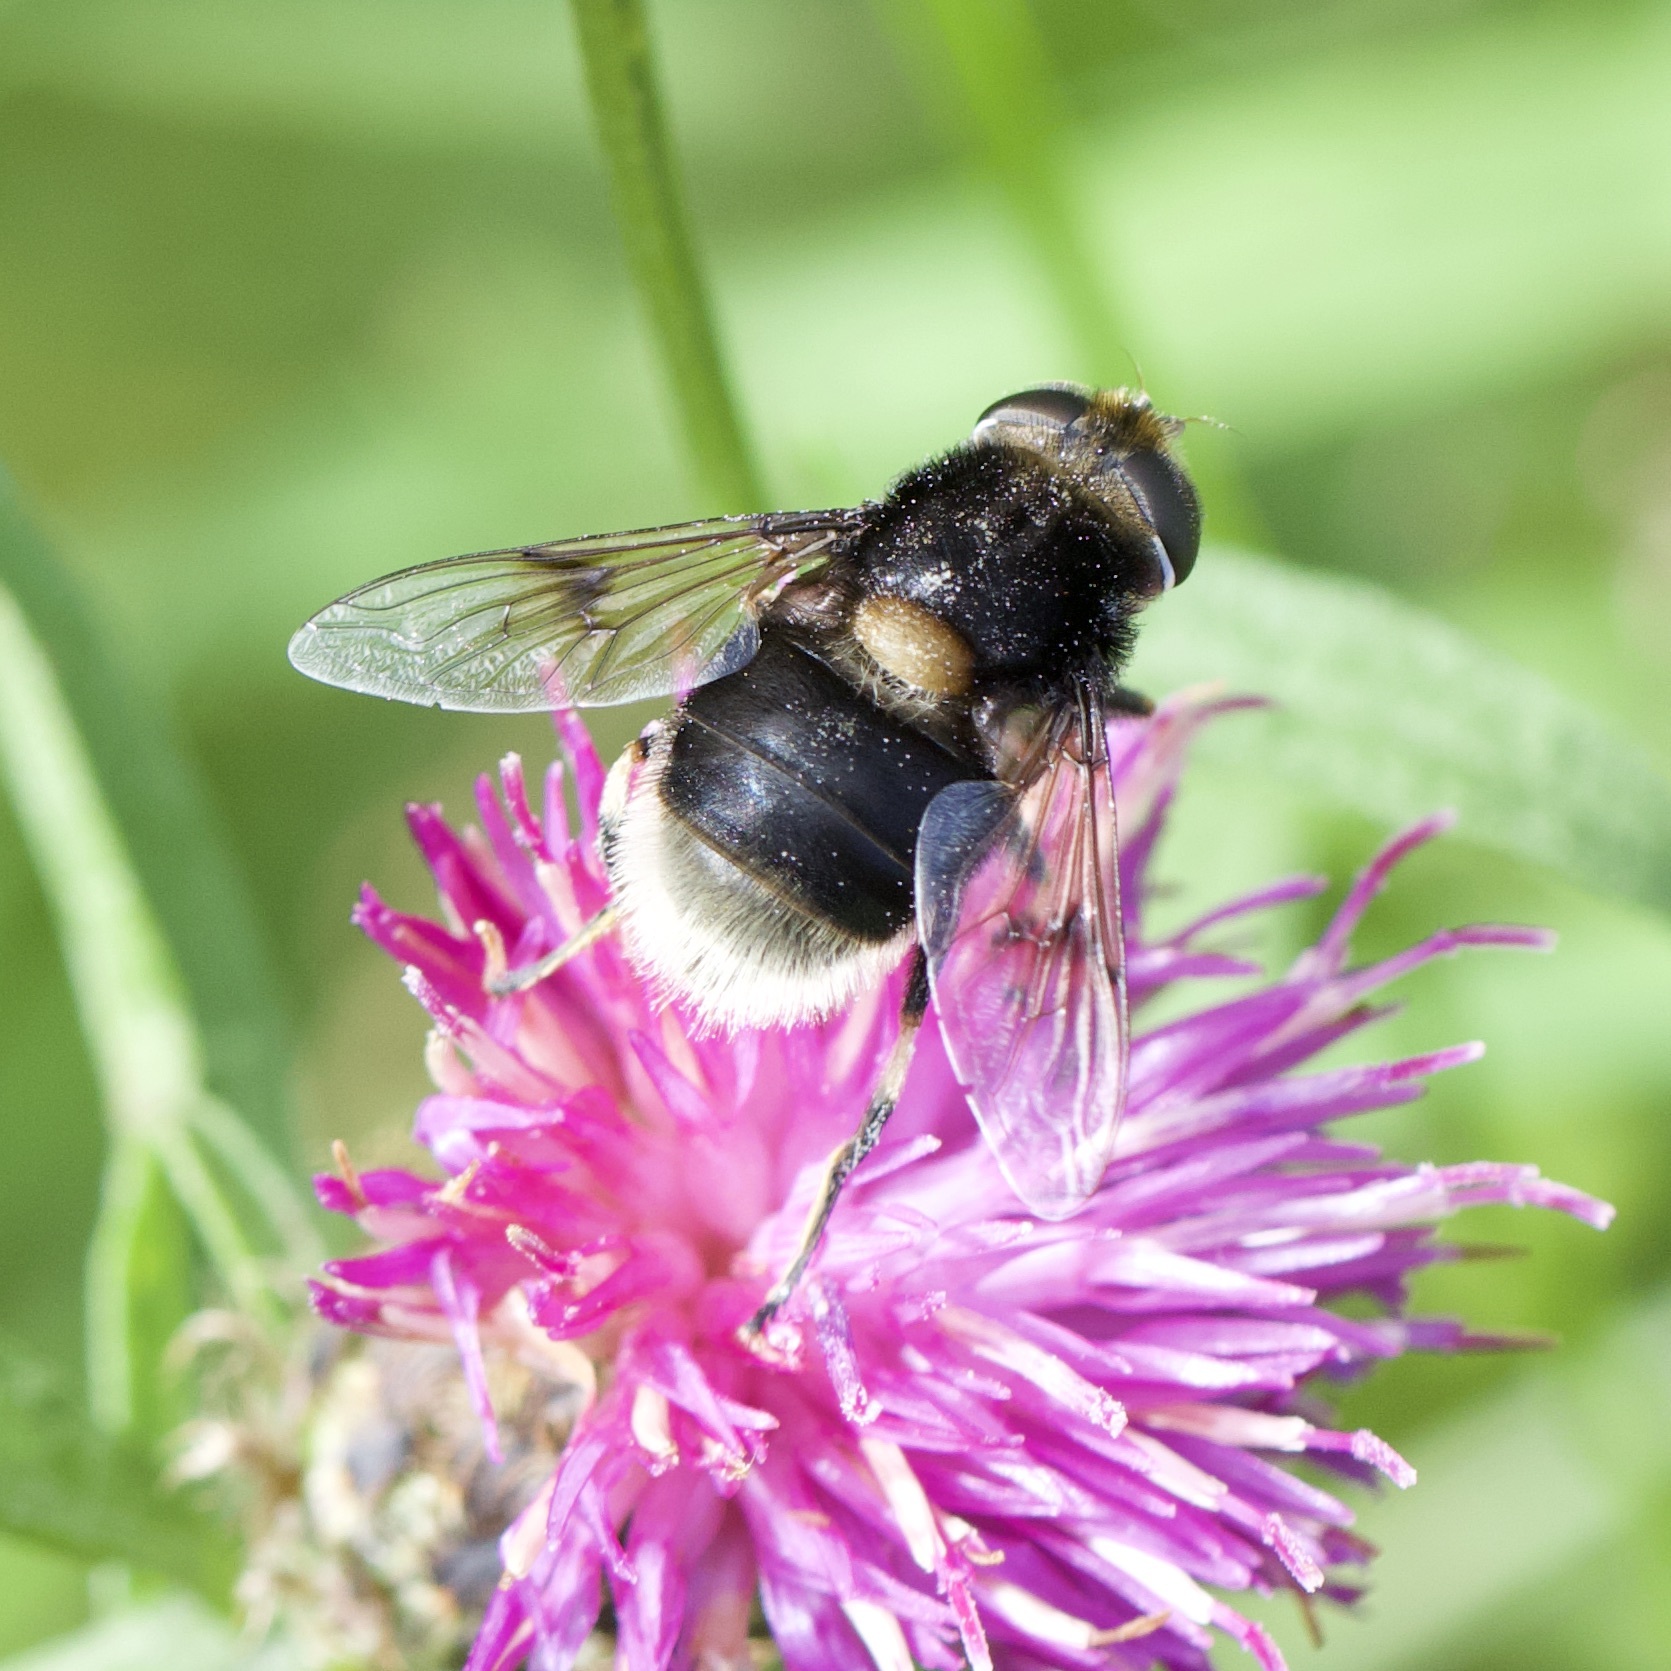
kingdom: Animalia
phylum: Arthropoda
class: Insecta
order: Diptera
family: Syrphidae
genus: Eristalis
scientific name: Eristalis intricaria
